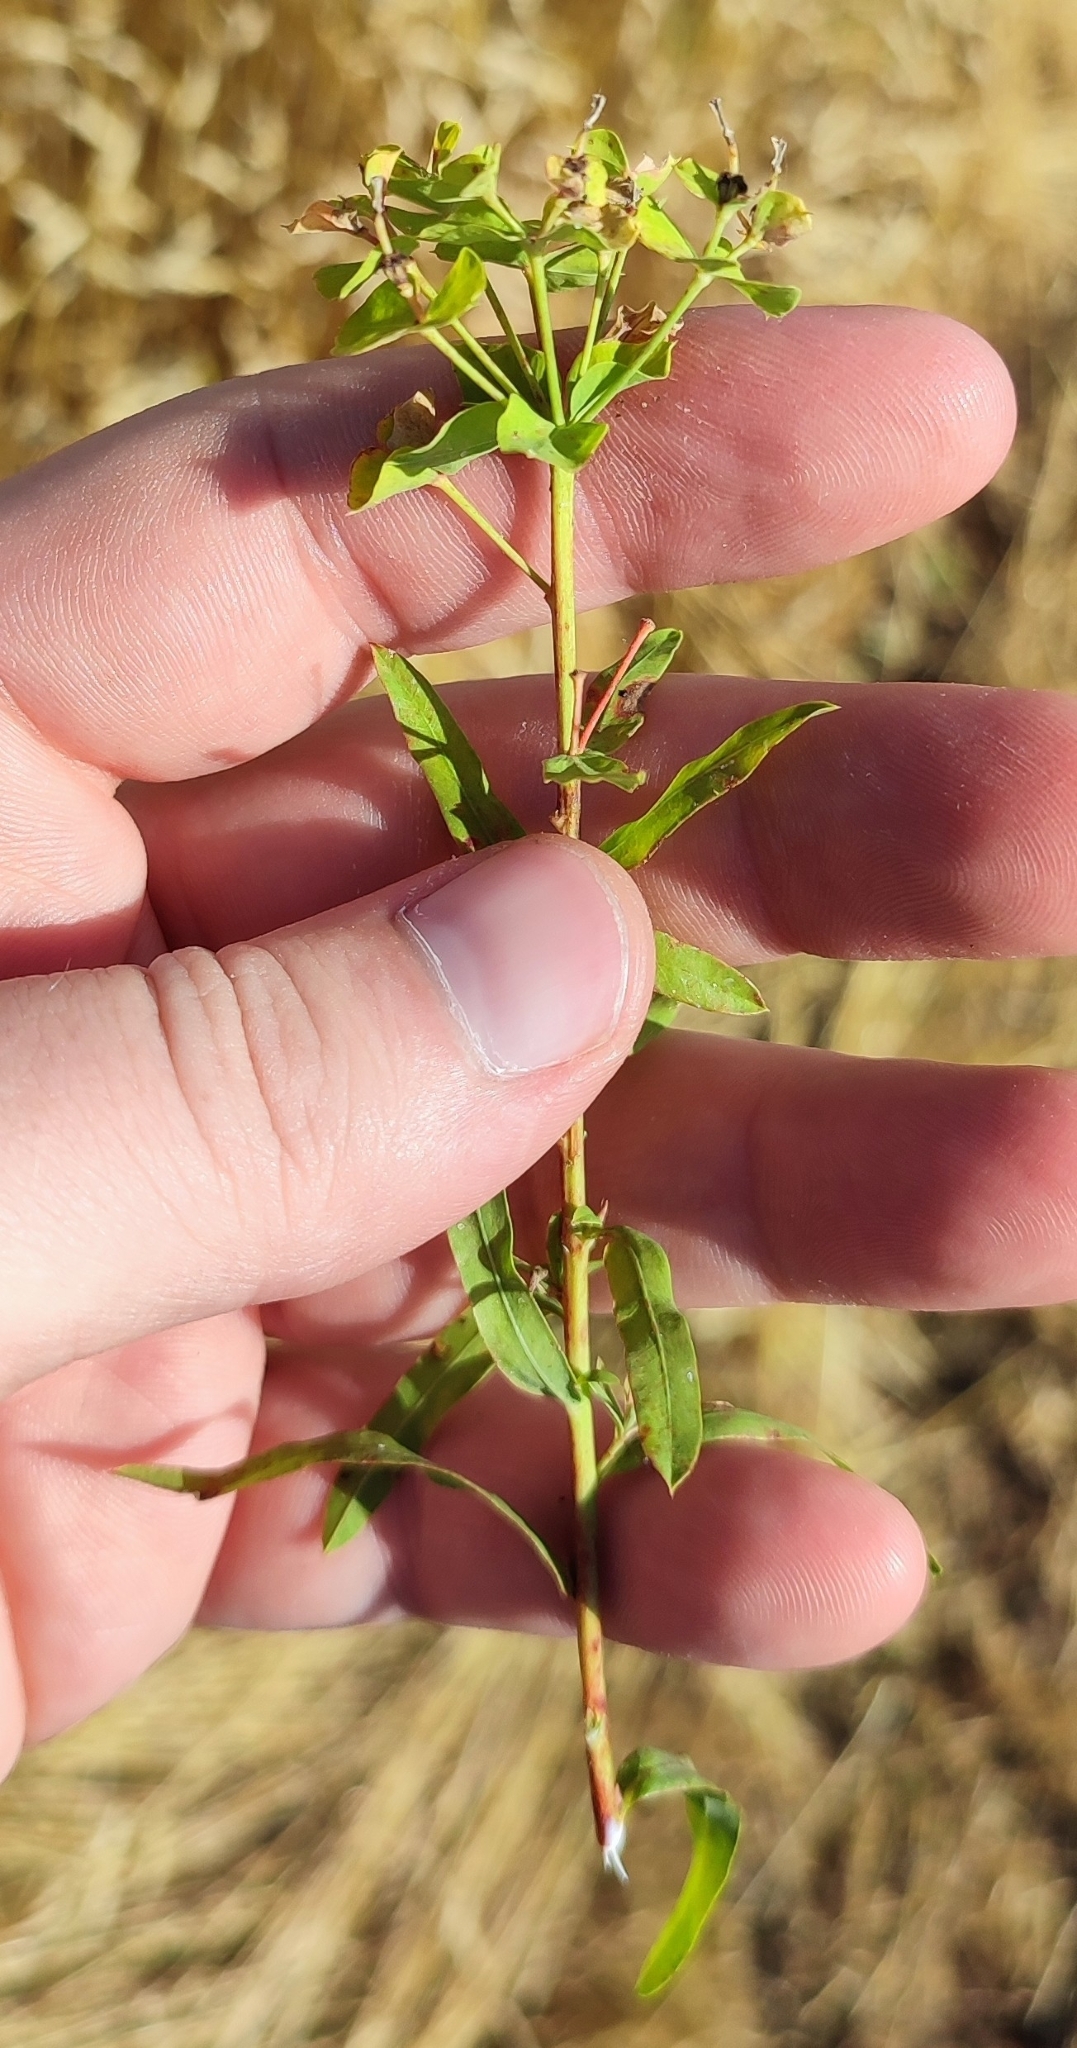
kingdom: Plantae
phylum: Tracheophyta
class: Magnoliopsida
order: Malpighiales
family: Euphorbiaceae
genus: Euphorbia
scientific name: Euphorbia virgata
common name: Leafy spurge
